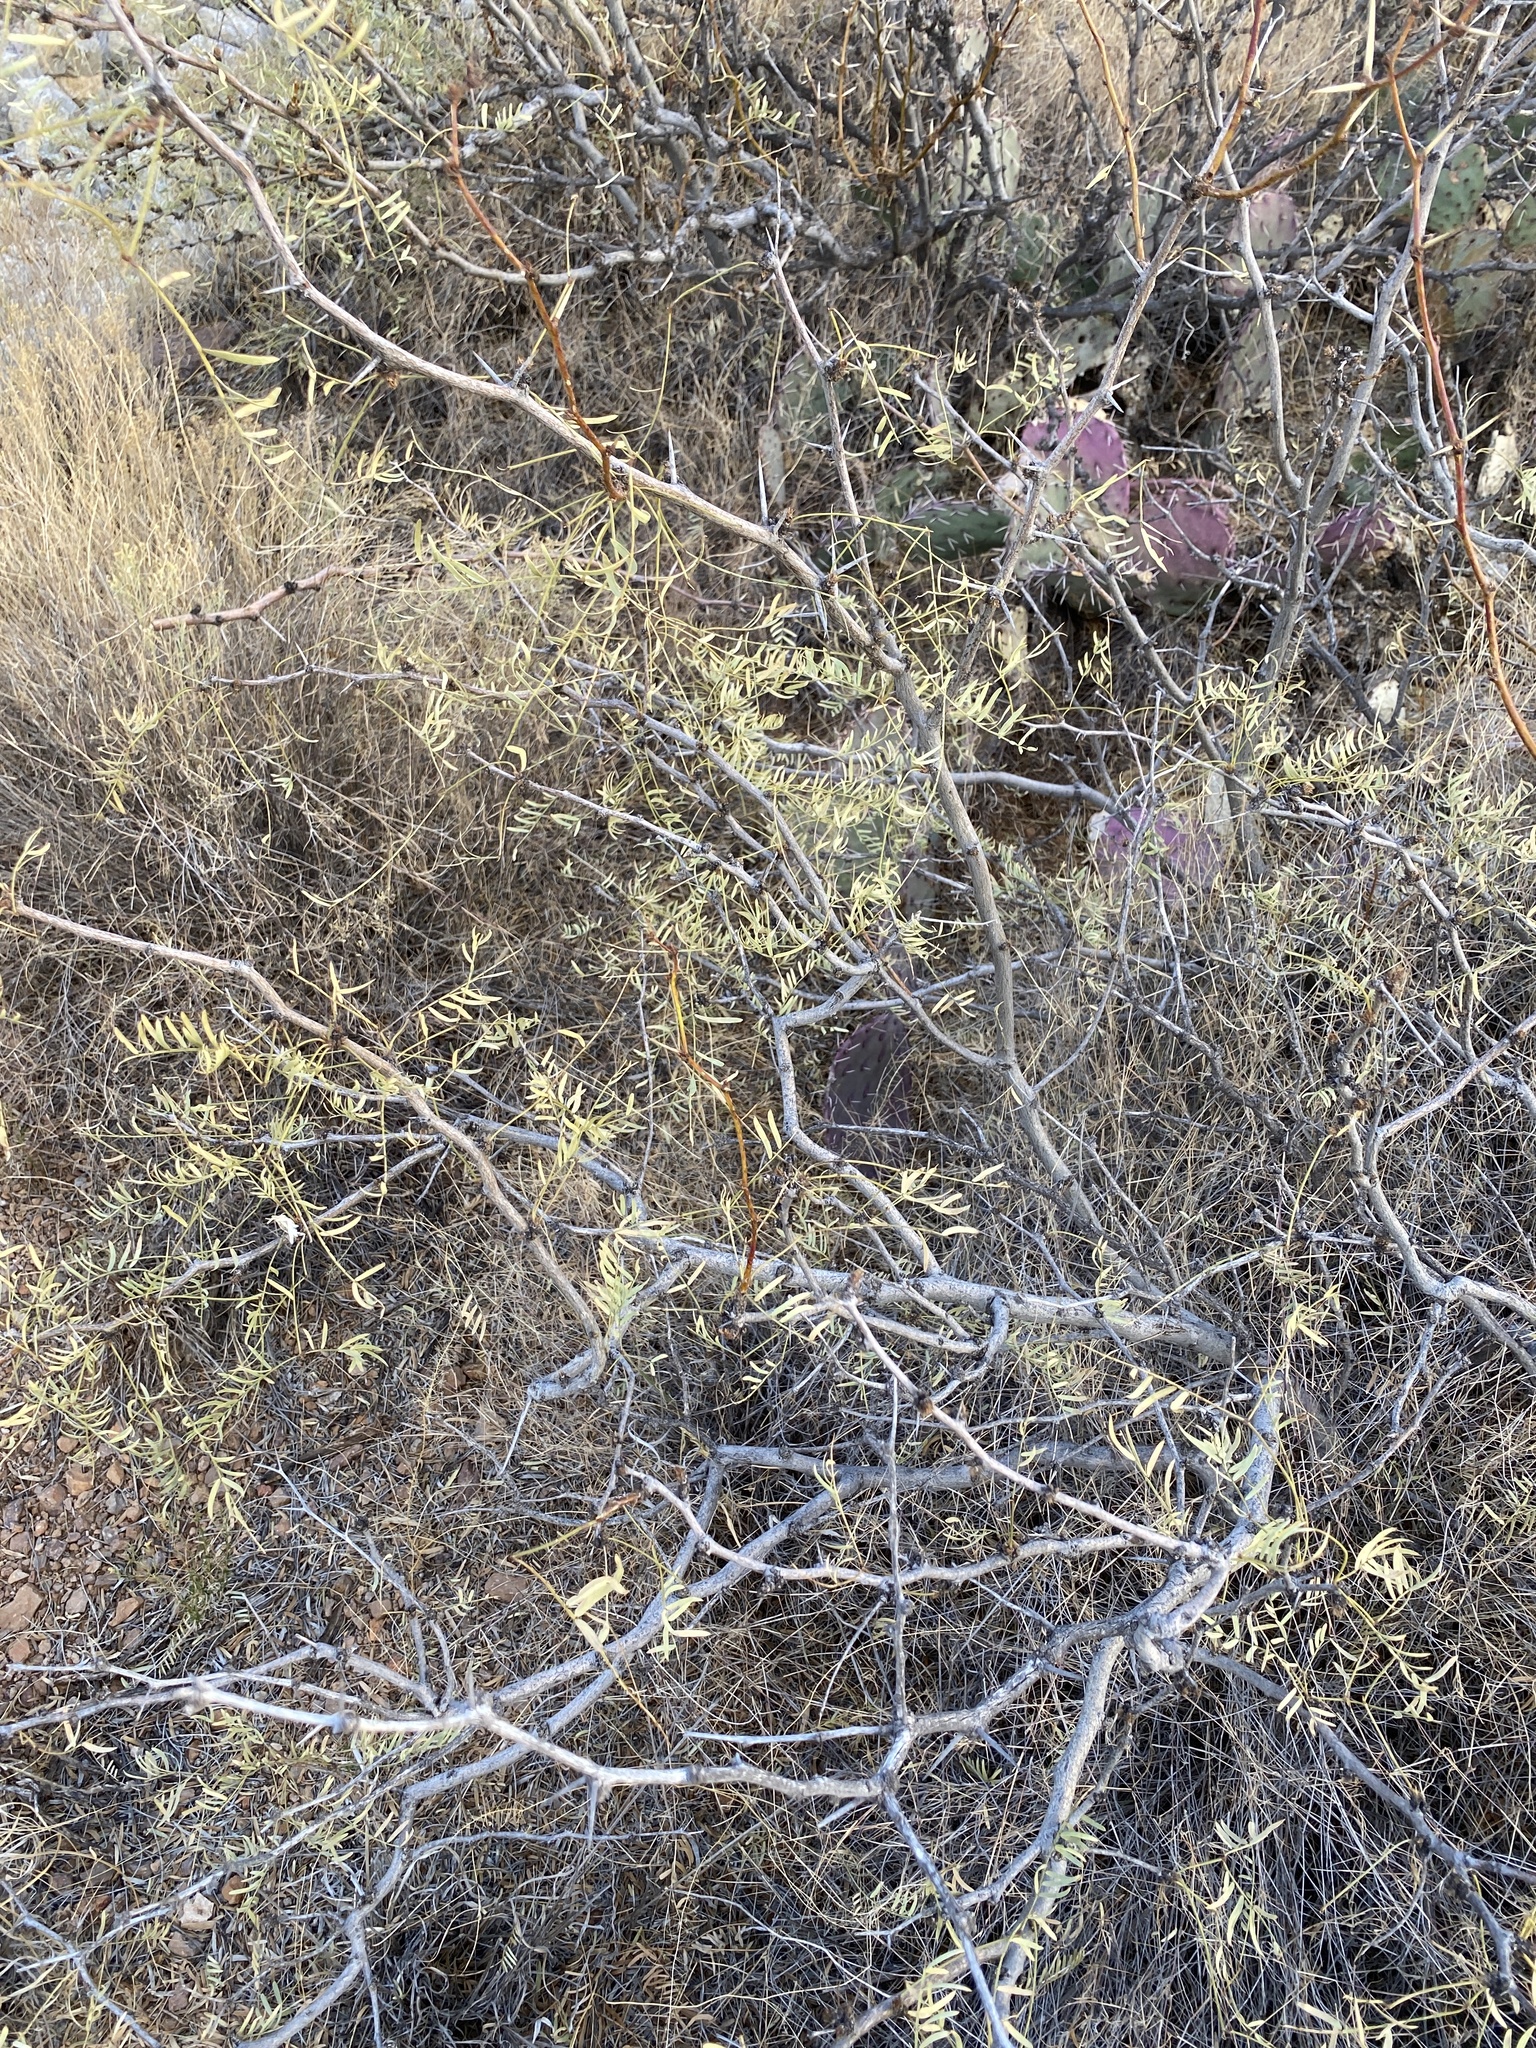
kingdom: Plantae
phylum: Tracheophyta
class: Magnoliopsida
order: Fabales
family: Fabaceae
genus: Prosopis
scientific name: Prosopis glandulosa
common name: Honey mesquite
